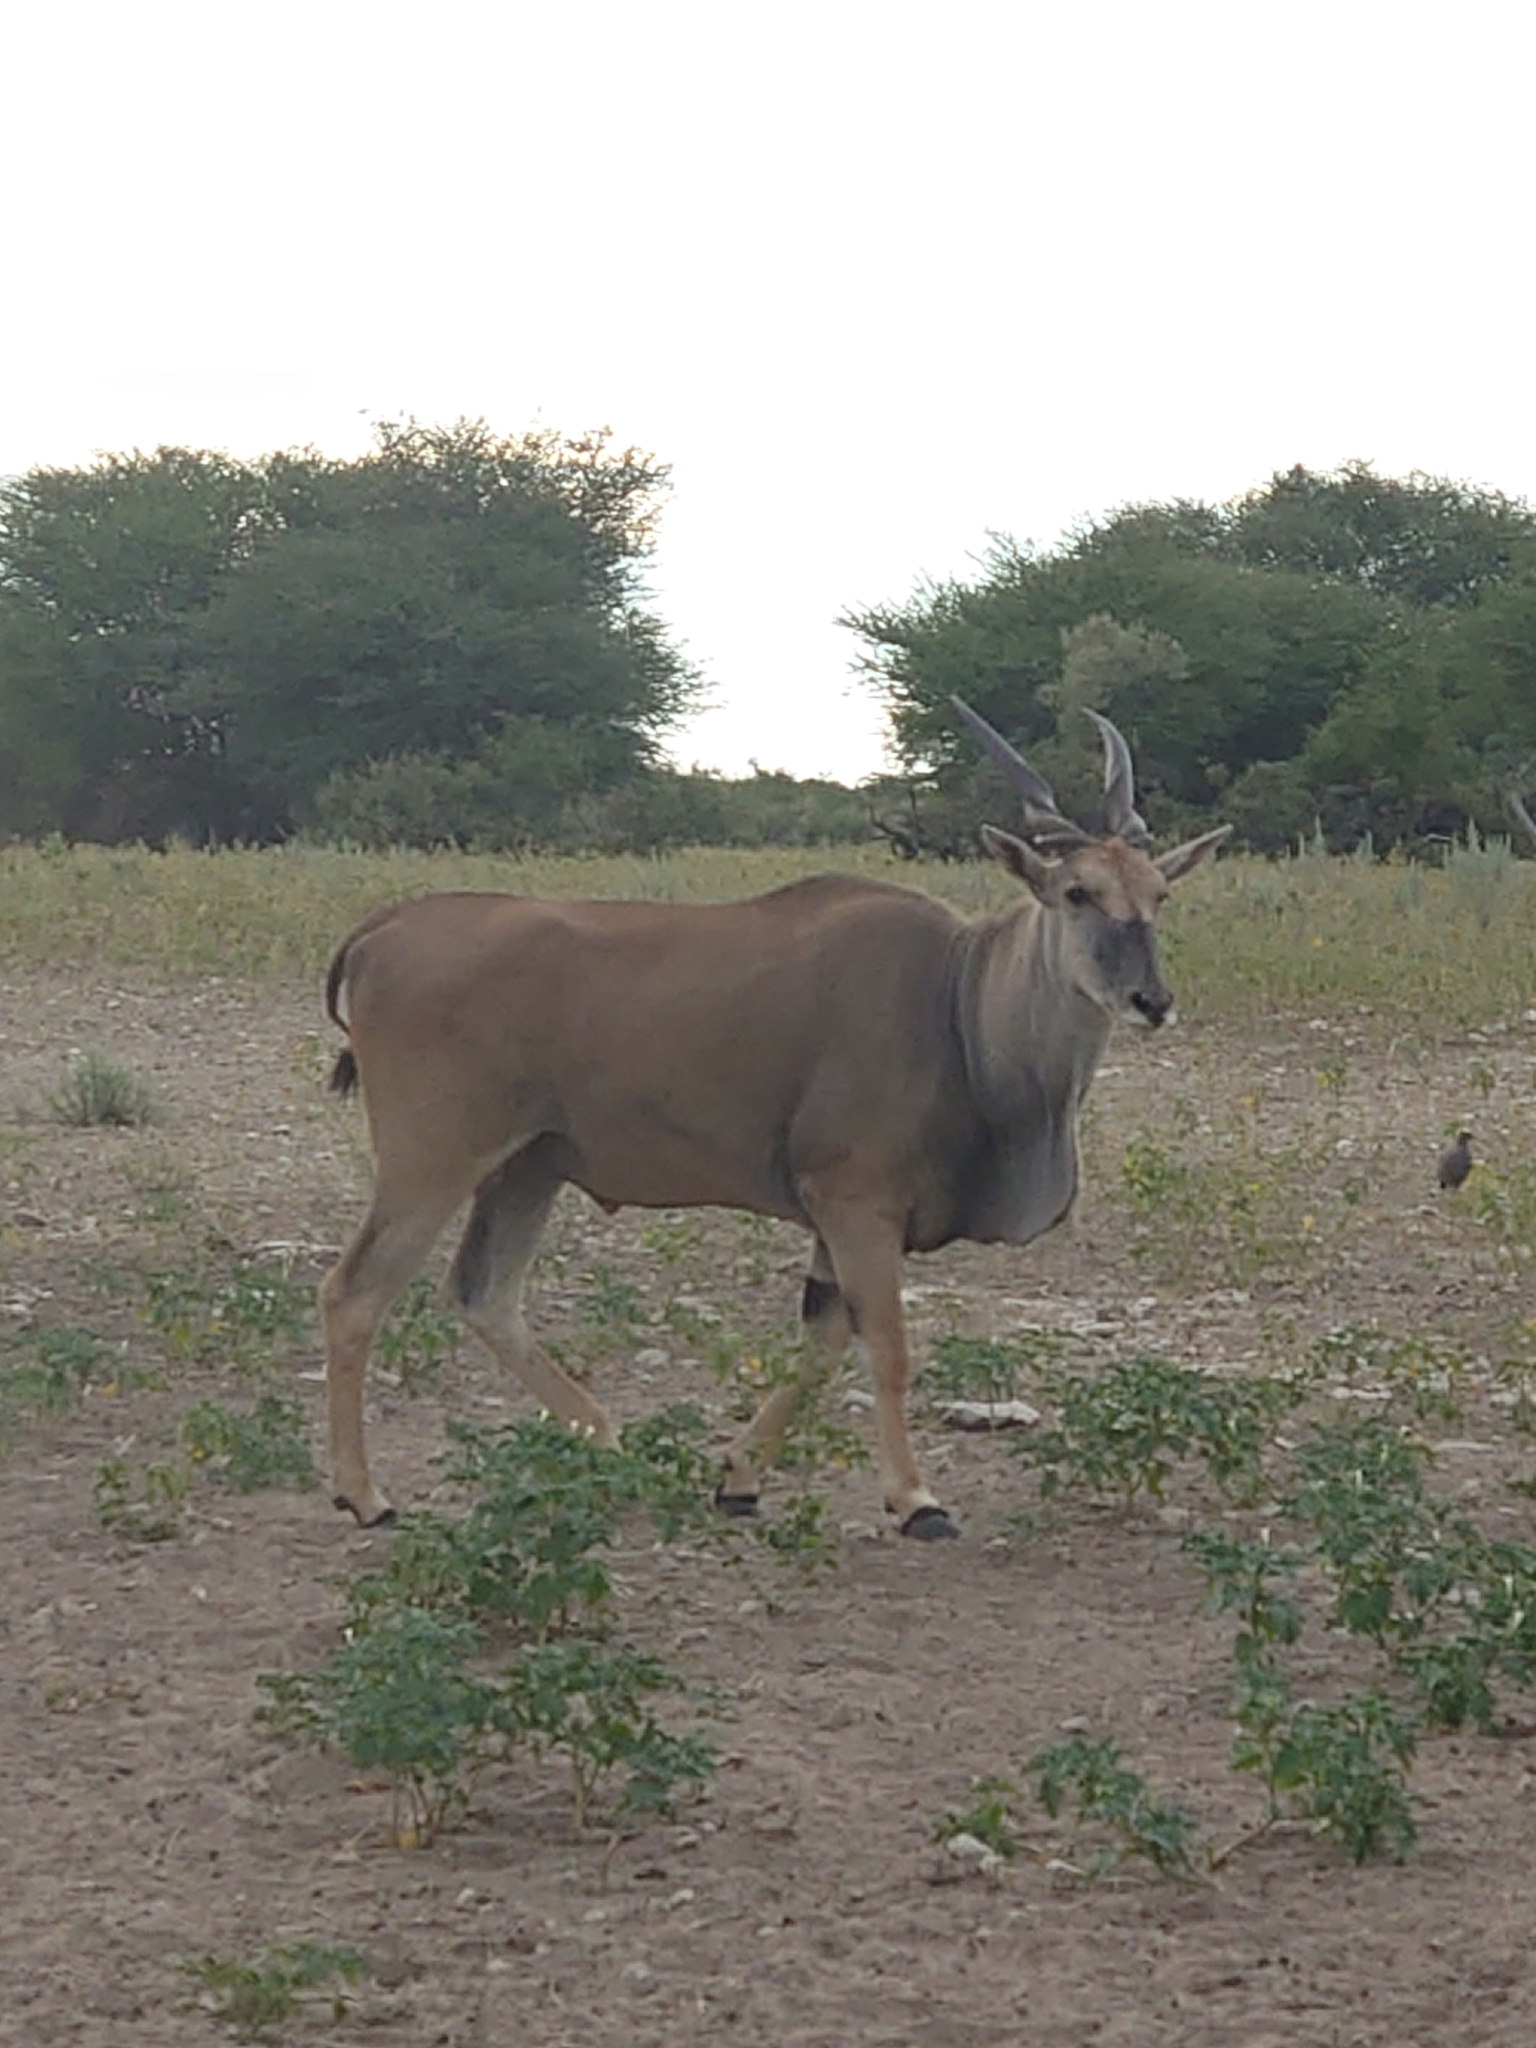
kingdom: Animalia
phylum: Chordata
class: Mammalia
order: Artiodactyla
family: Bovidae
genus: Taurotragus
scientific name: Taurotragus oryx
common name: Common eland
